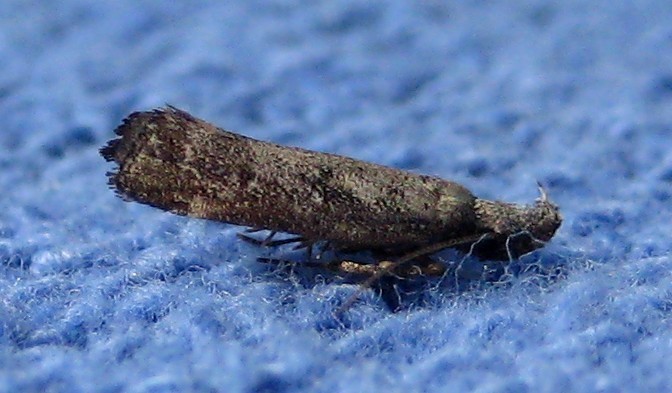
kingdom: Animalia
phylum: Arthropoda
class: Insecta
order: Lepidoptera
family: Gelechiidae
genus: Dichomeris
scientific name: Dichomeris inversella
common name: Inverse dichomeris moth
